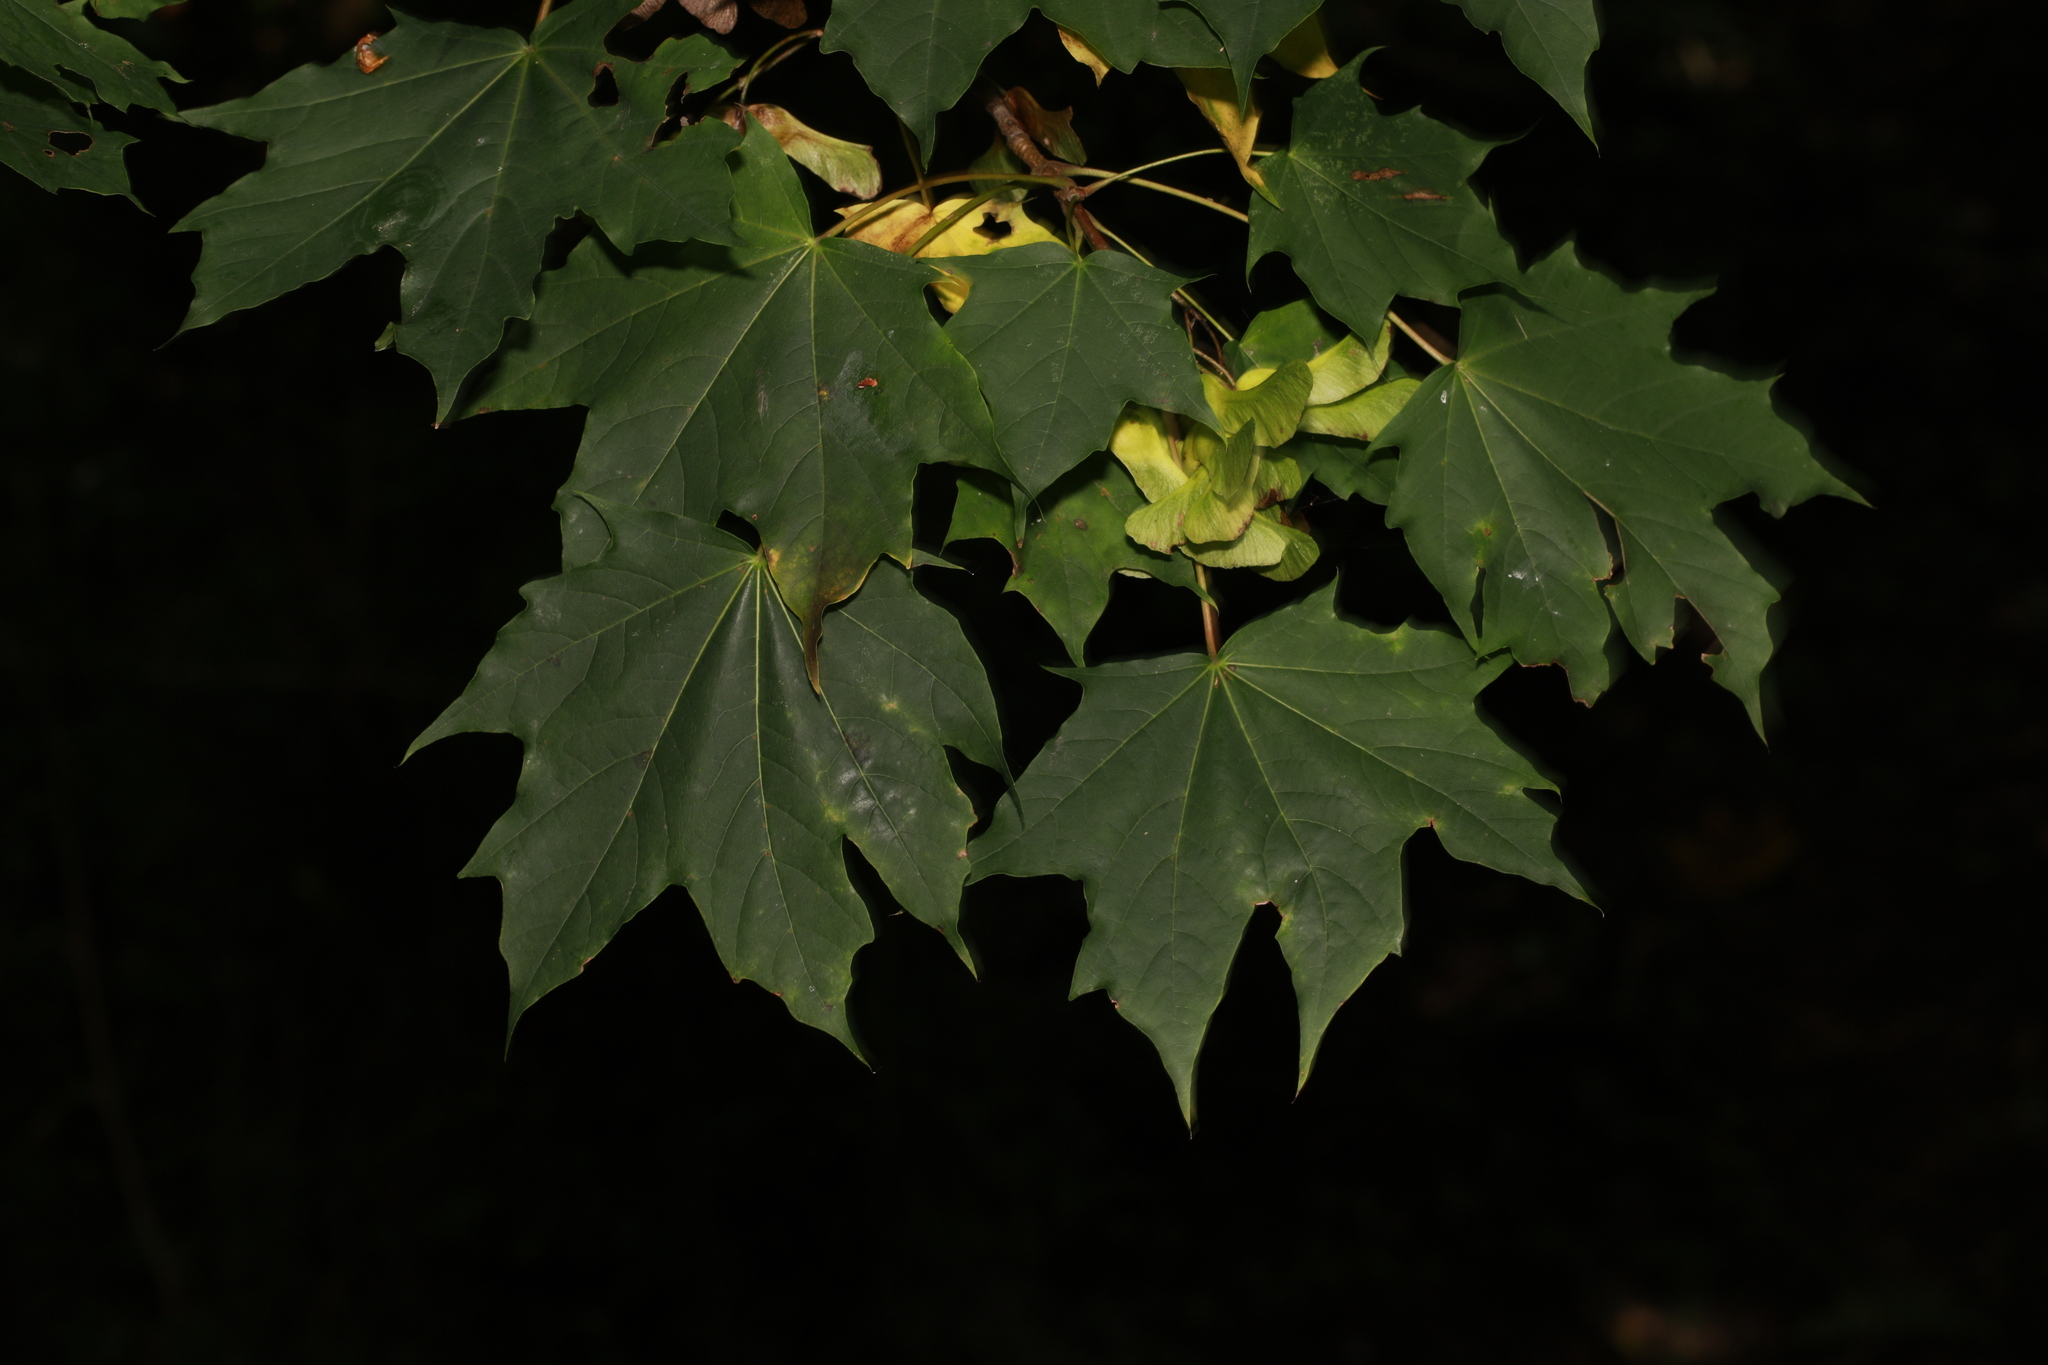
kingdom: Plantae
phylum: Tracheophyta
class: Magnoliopsida
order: Sapindales
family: Sapindaceae
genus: Acer
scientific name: Acer platanoides
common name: Norway maple
